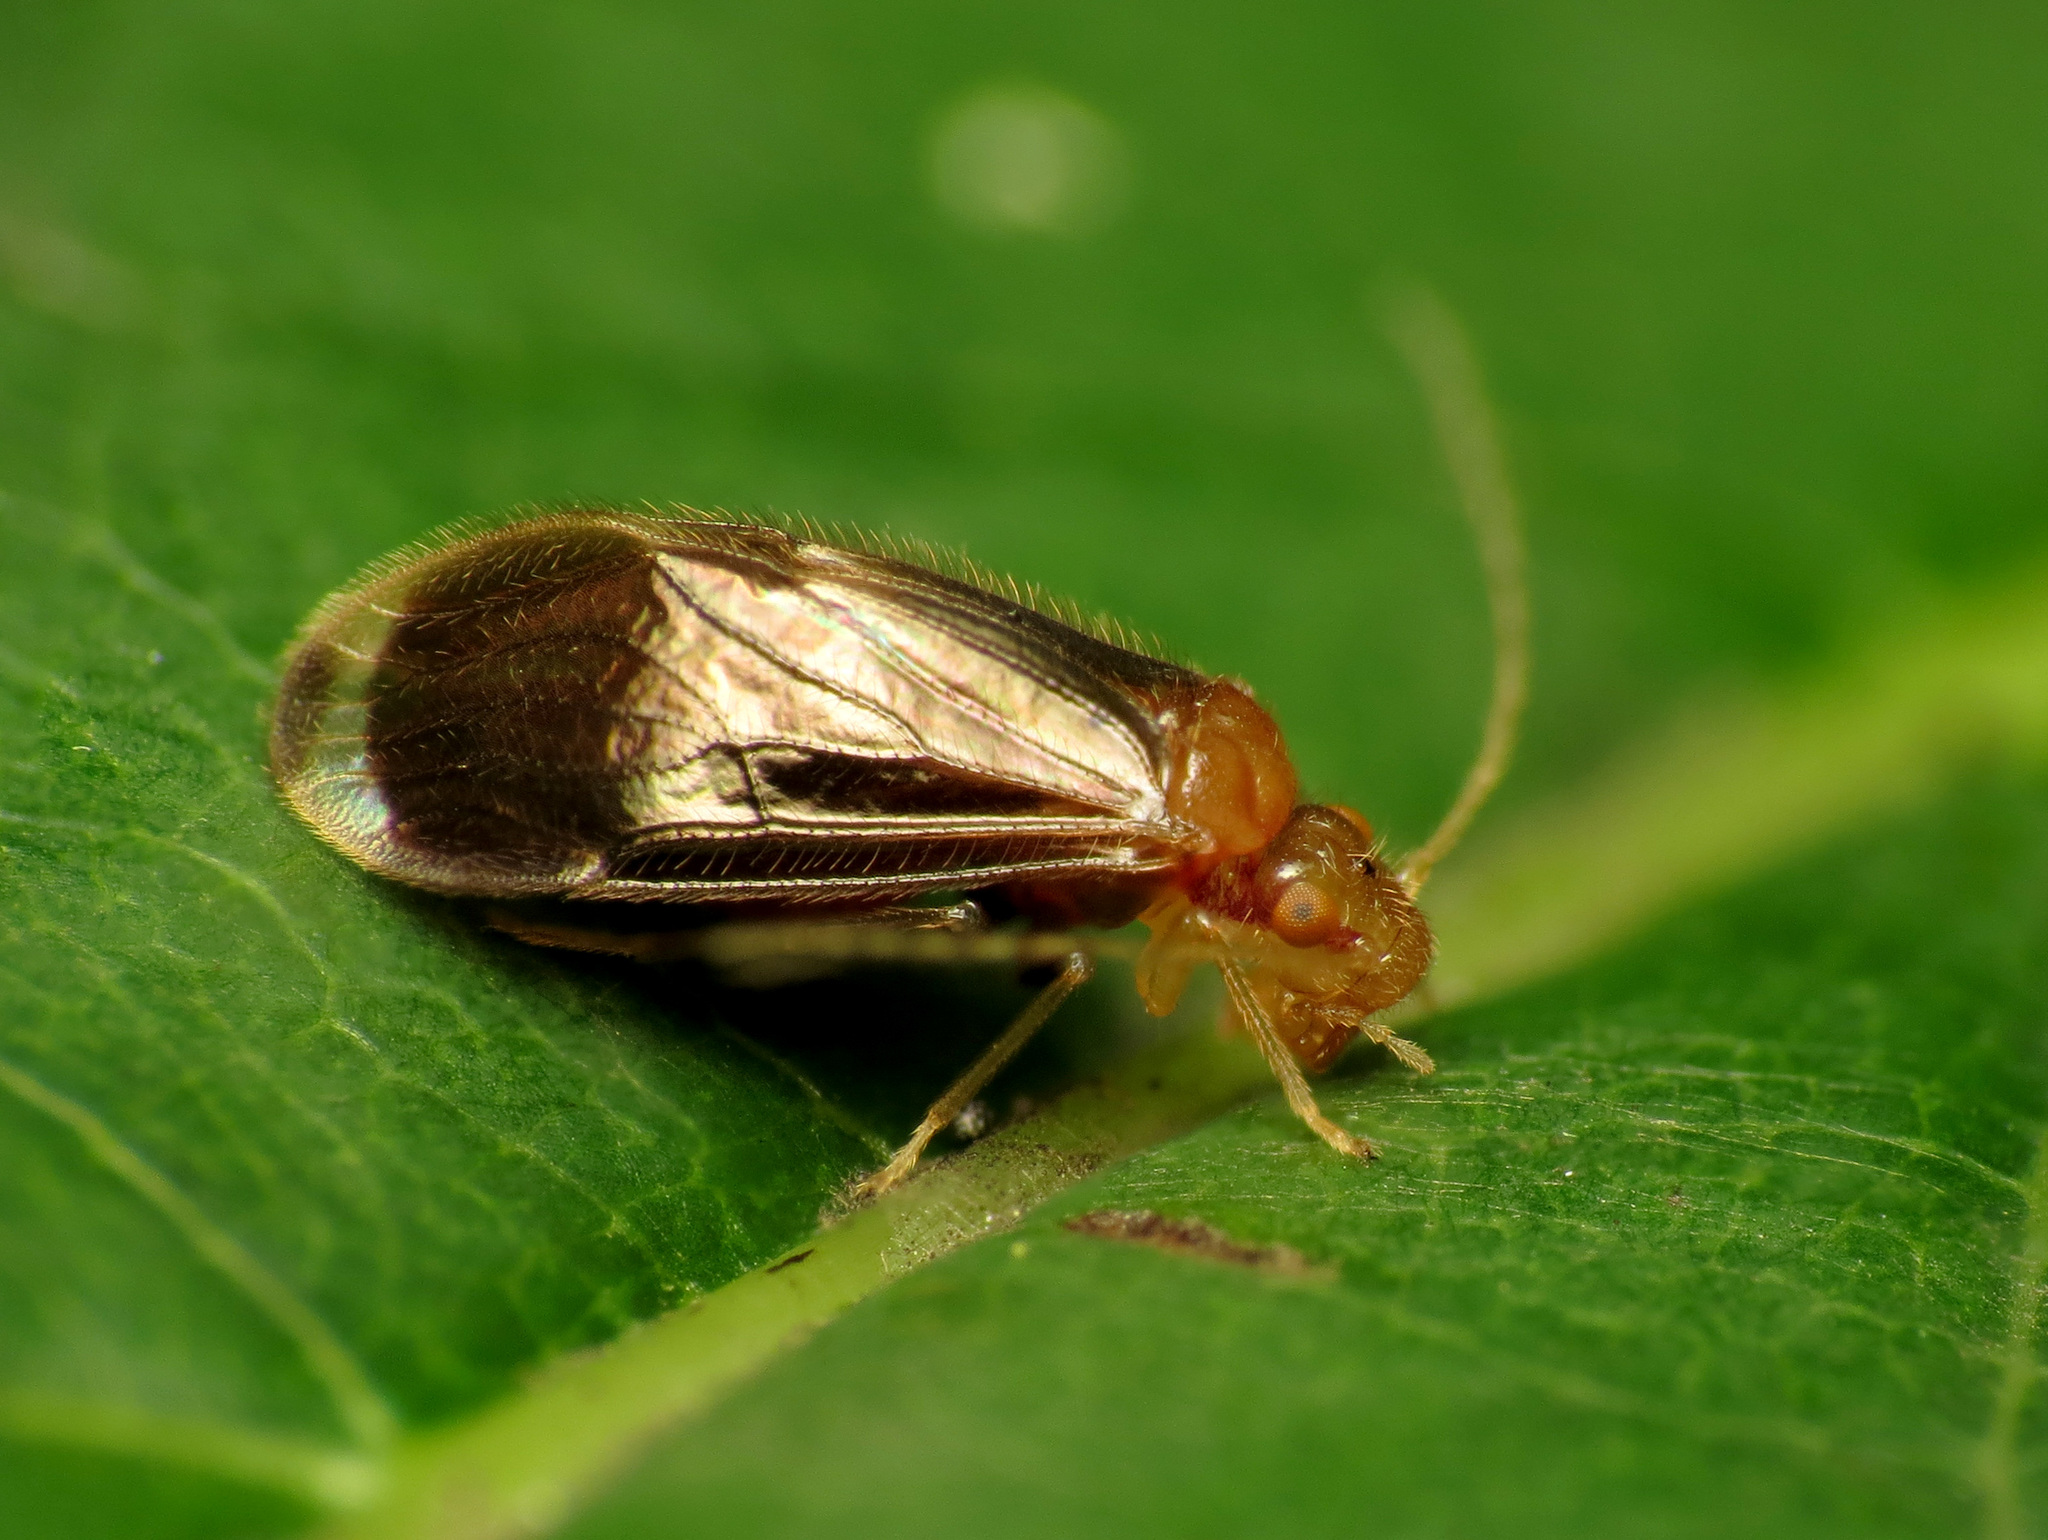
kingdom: Animalia
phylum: Arthropoda
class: Insecta
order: Psocodea
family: Amphipsocidae
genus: Polypsocus
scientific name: Polypsocus corruptus
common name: Corrupt barklouse
